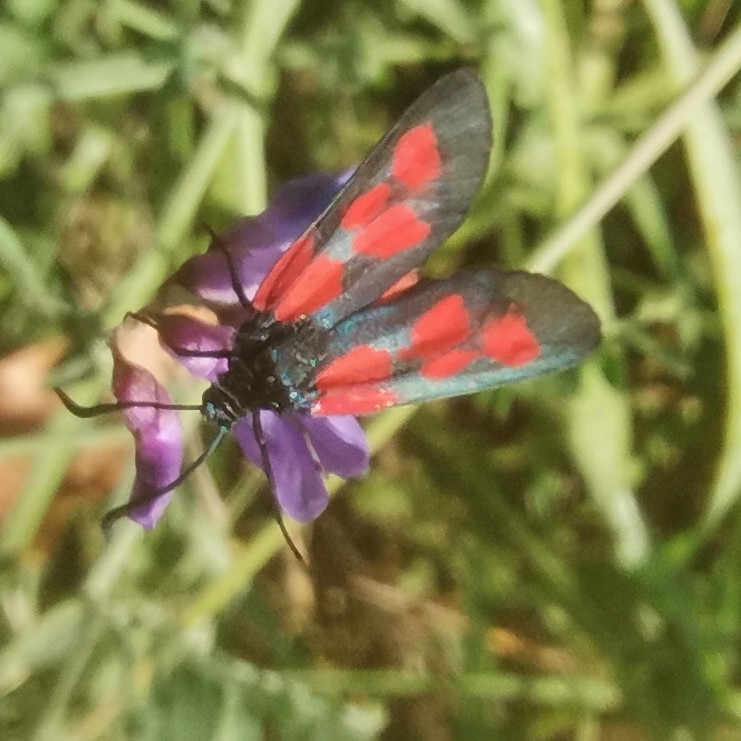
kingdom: Animalia
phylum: Arthropoda
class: Insecta
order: Lepidoptera
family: Zygaenidae
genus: Zygaena
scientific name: Zygaena viciae
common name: New forest burnet
